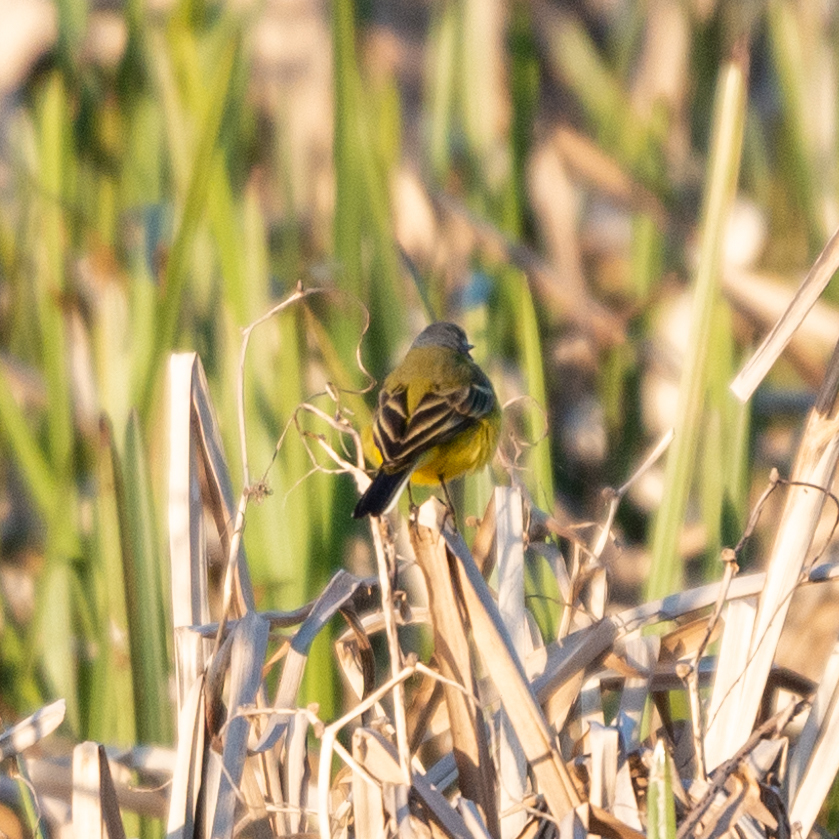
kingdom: Animalia
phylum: Chordata
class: Aves
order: Passeriformes
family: Motacillidae
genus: Motacilla
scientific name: Motacilla flava
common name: Western yellow wagtail
